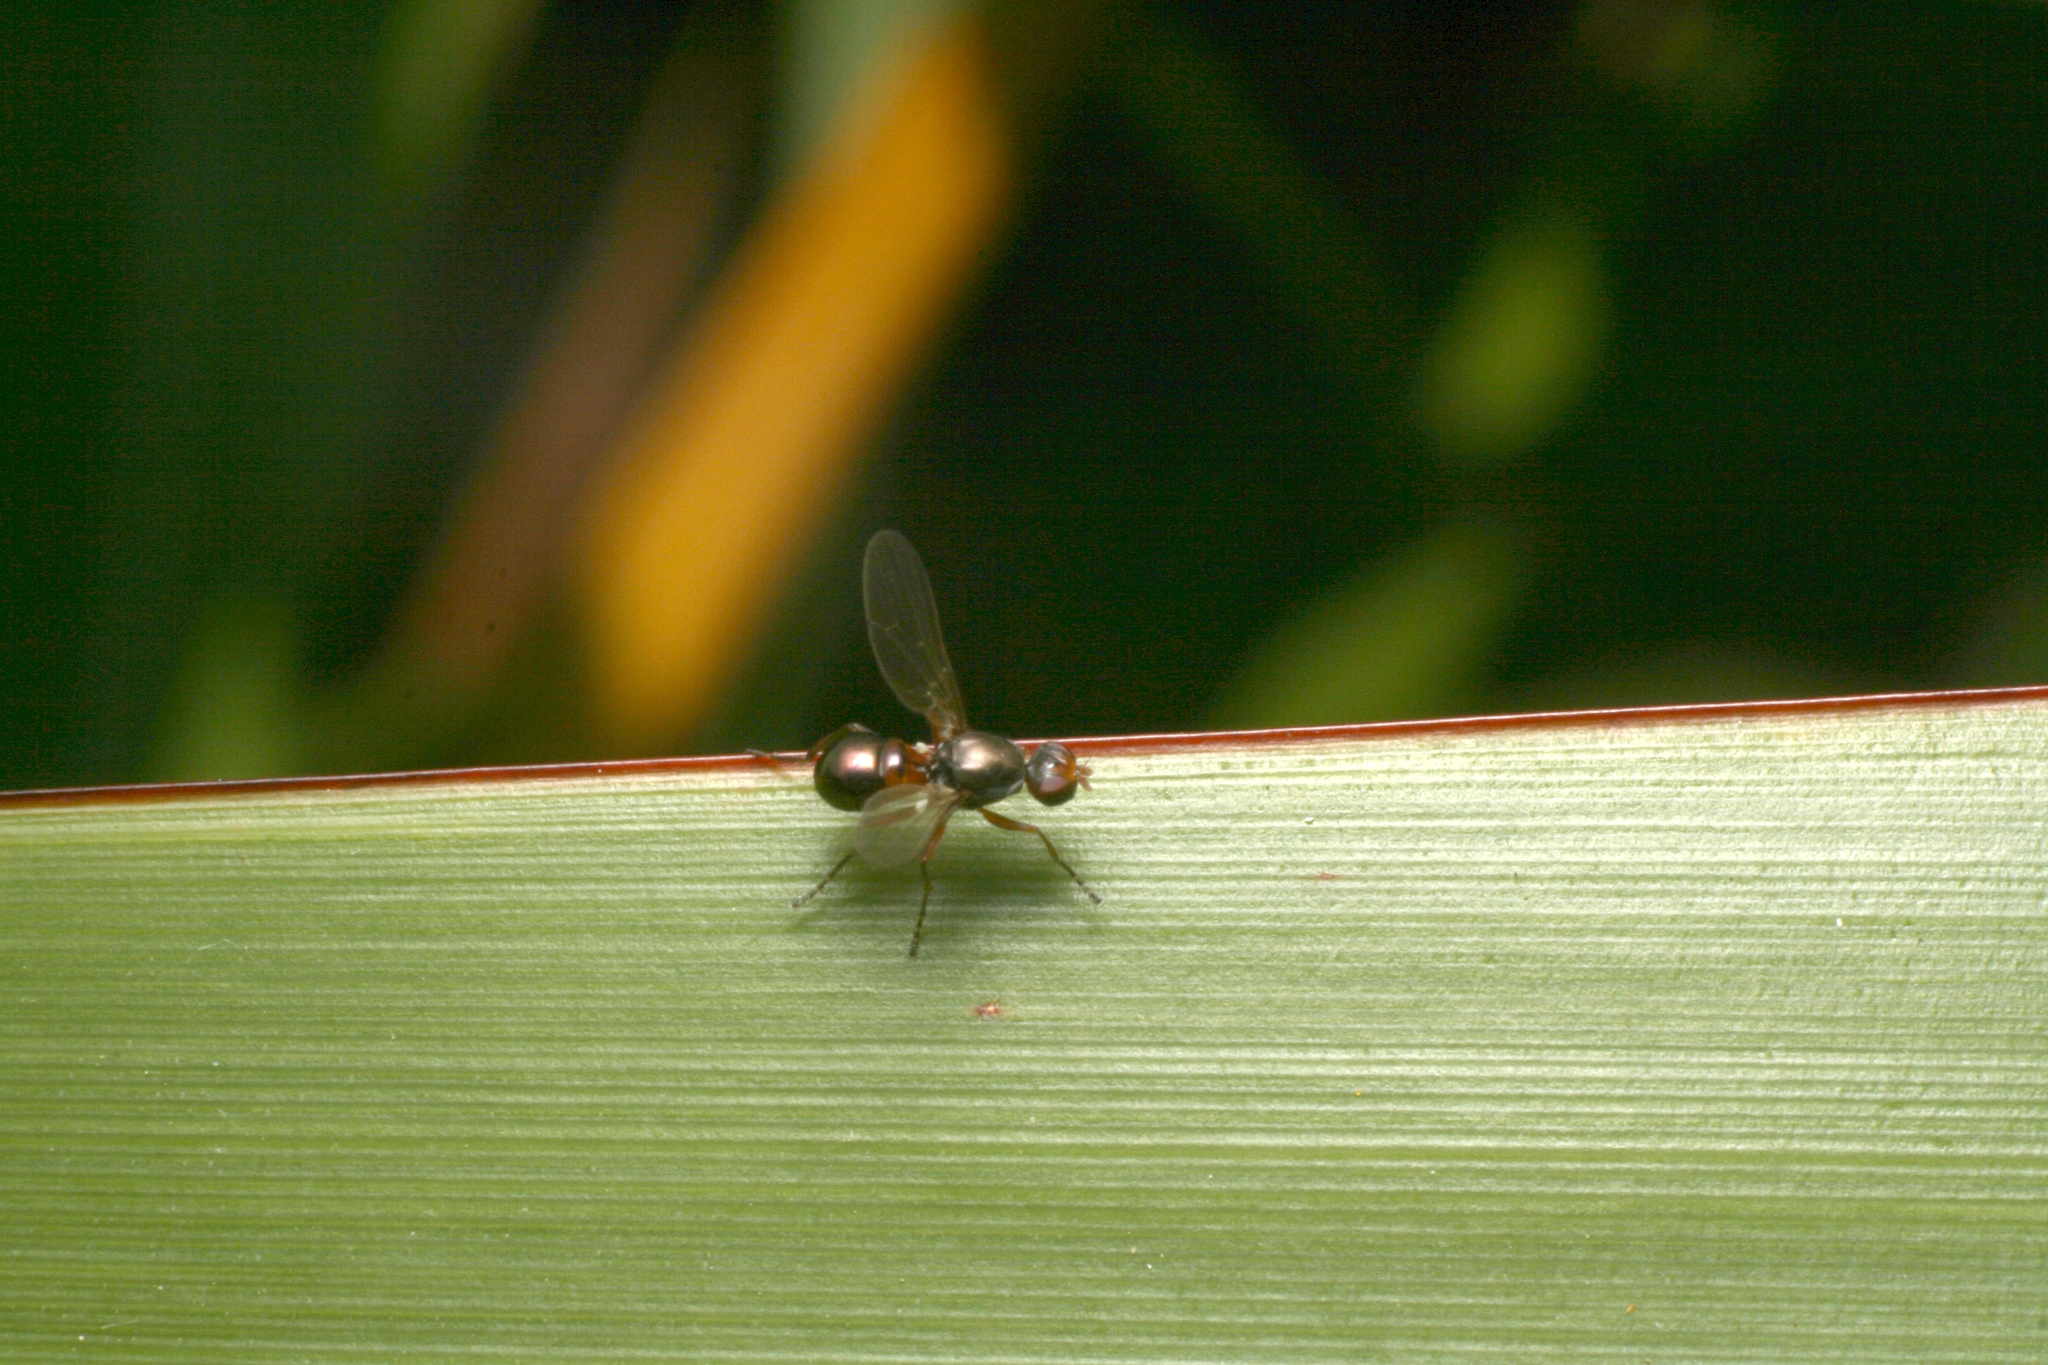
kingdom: Animalia
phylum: Arthropoda
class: Insecta
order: Diptera
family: Sepsidae
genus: Lasionemopoda
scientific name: Lasionemopoda hirsuta
